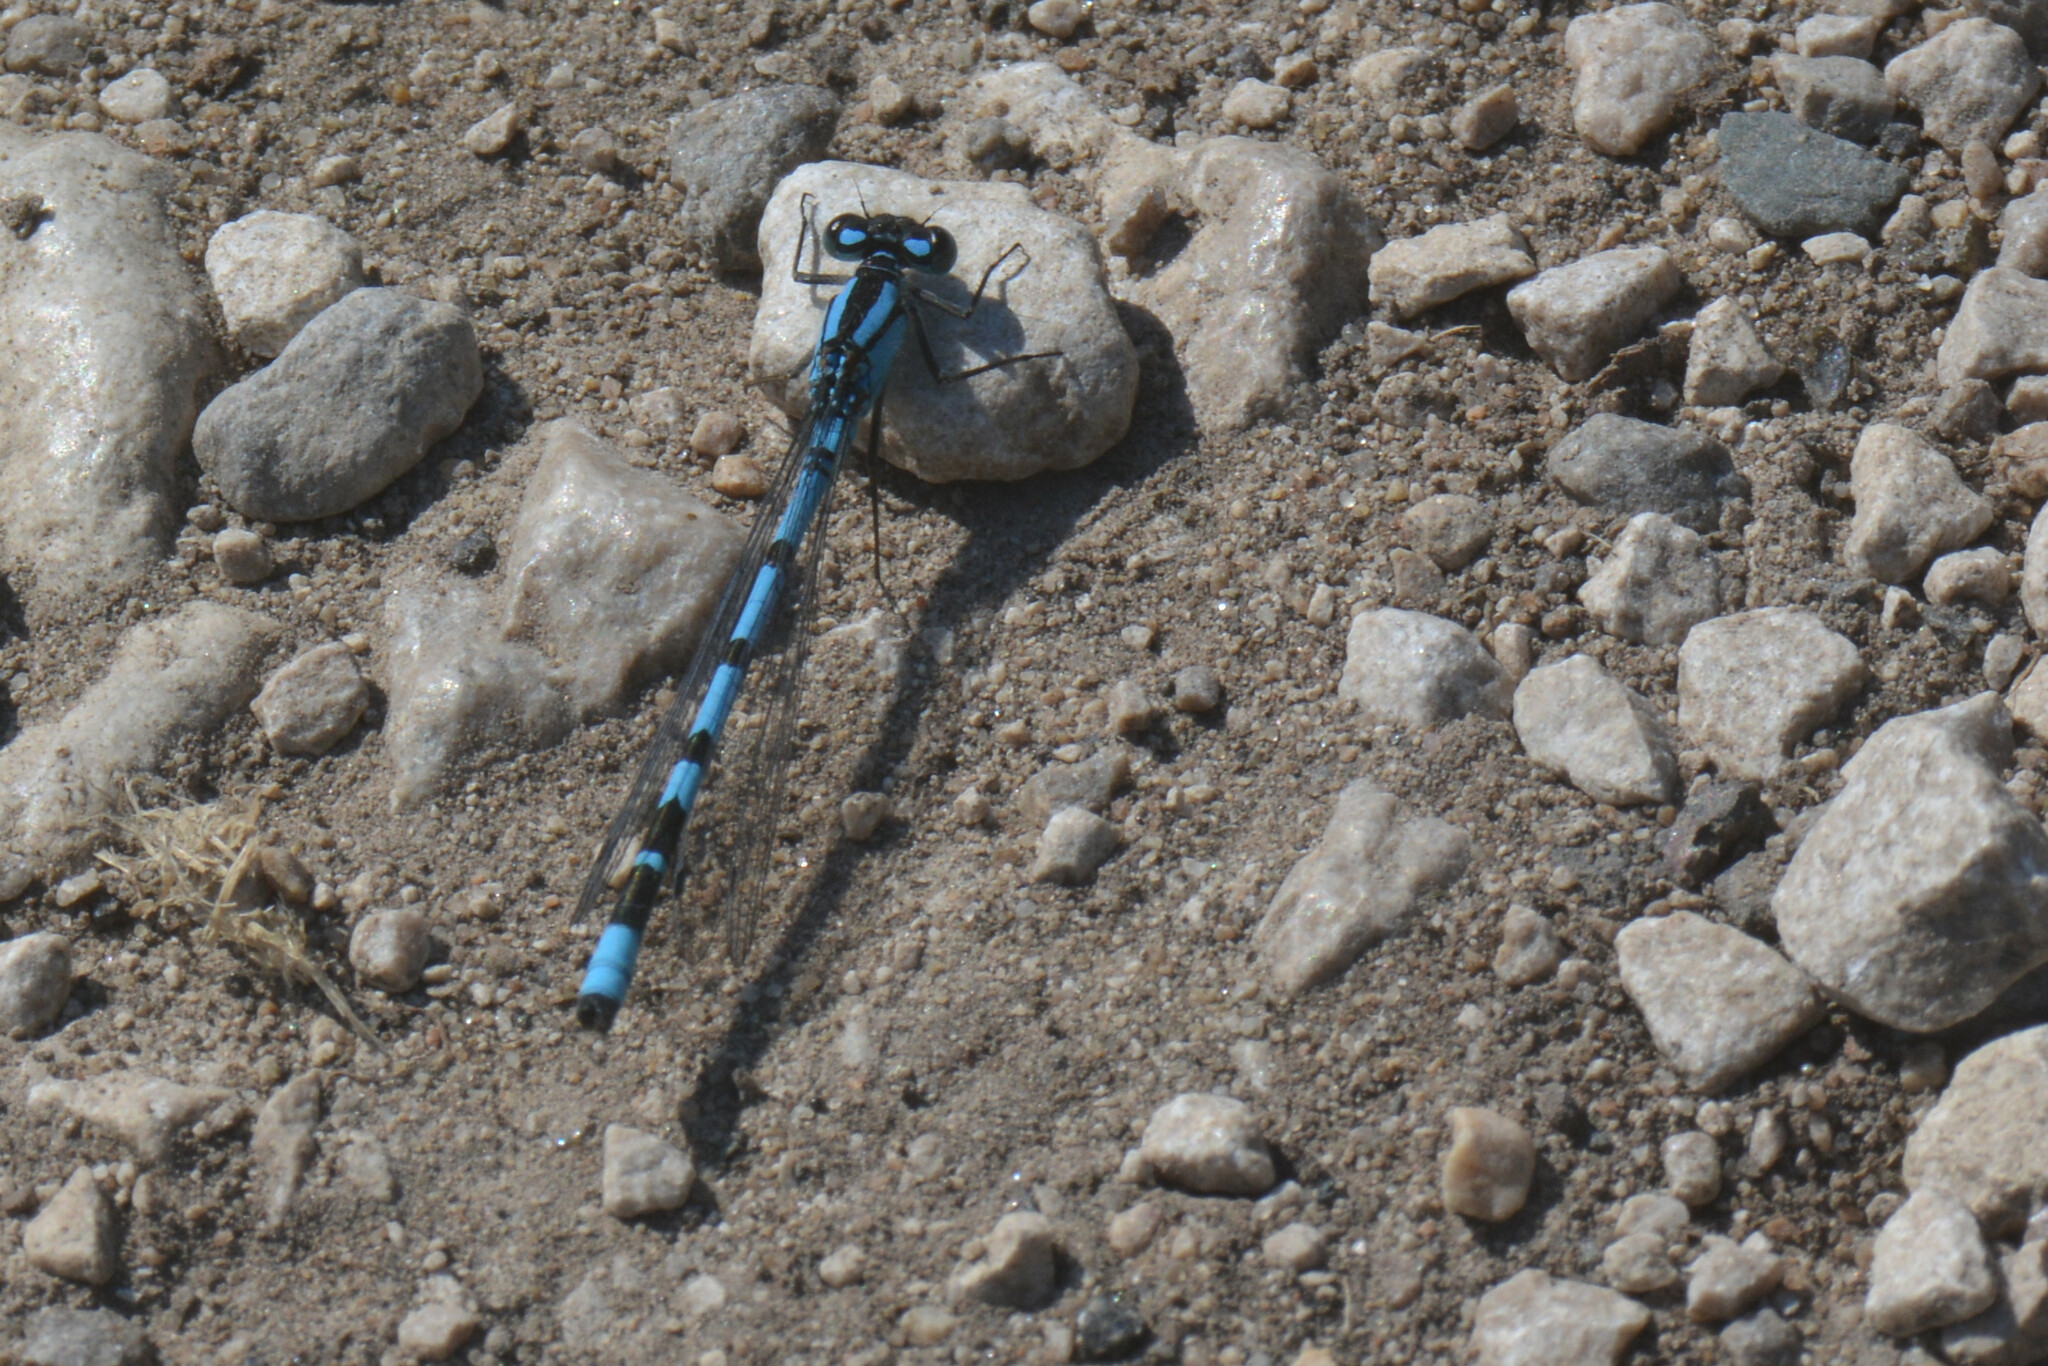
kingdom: Animalia
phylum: Arthropoda
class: Insecta
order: Odonata
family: Coenagrionidae
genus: Enallagma
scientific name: Enallagma cyathigerum
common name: Common blue damselfly
